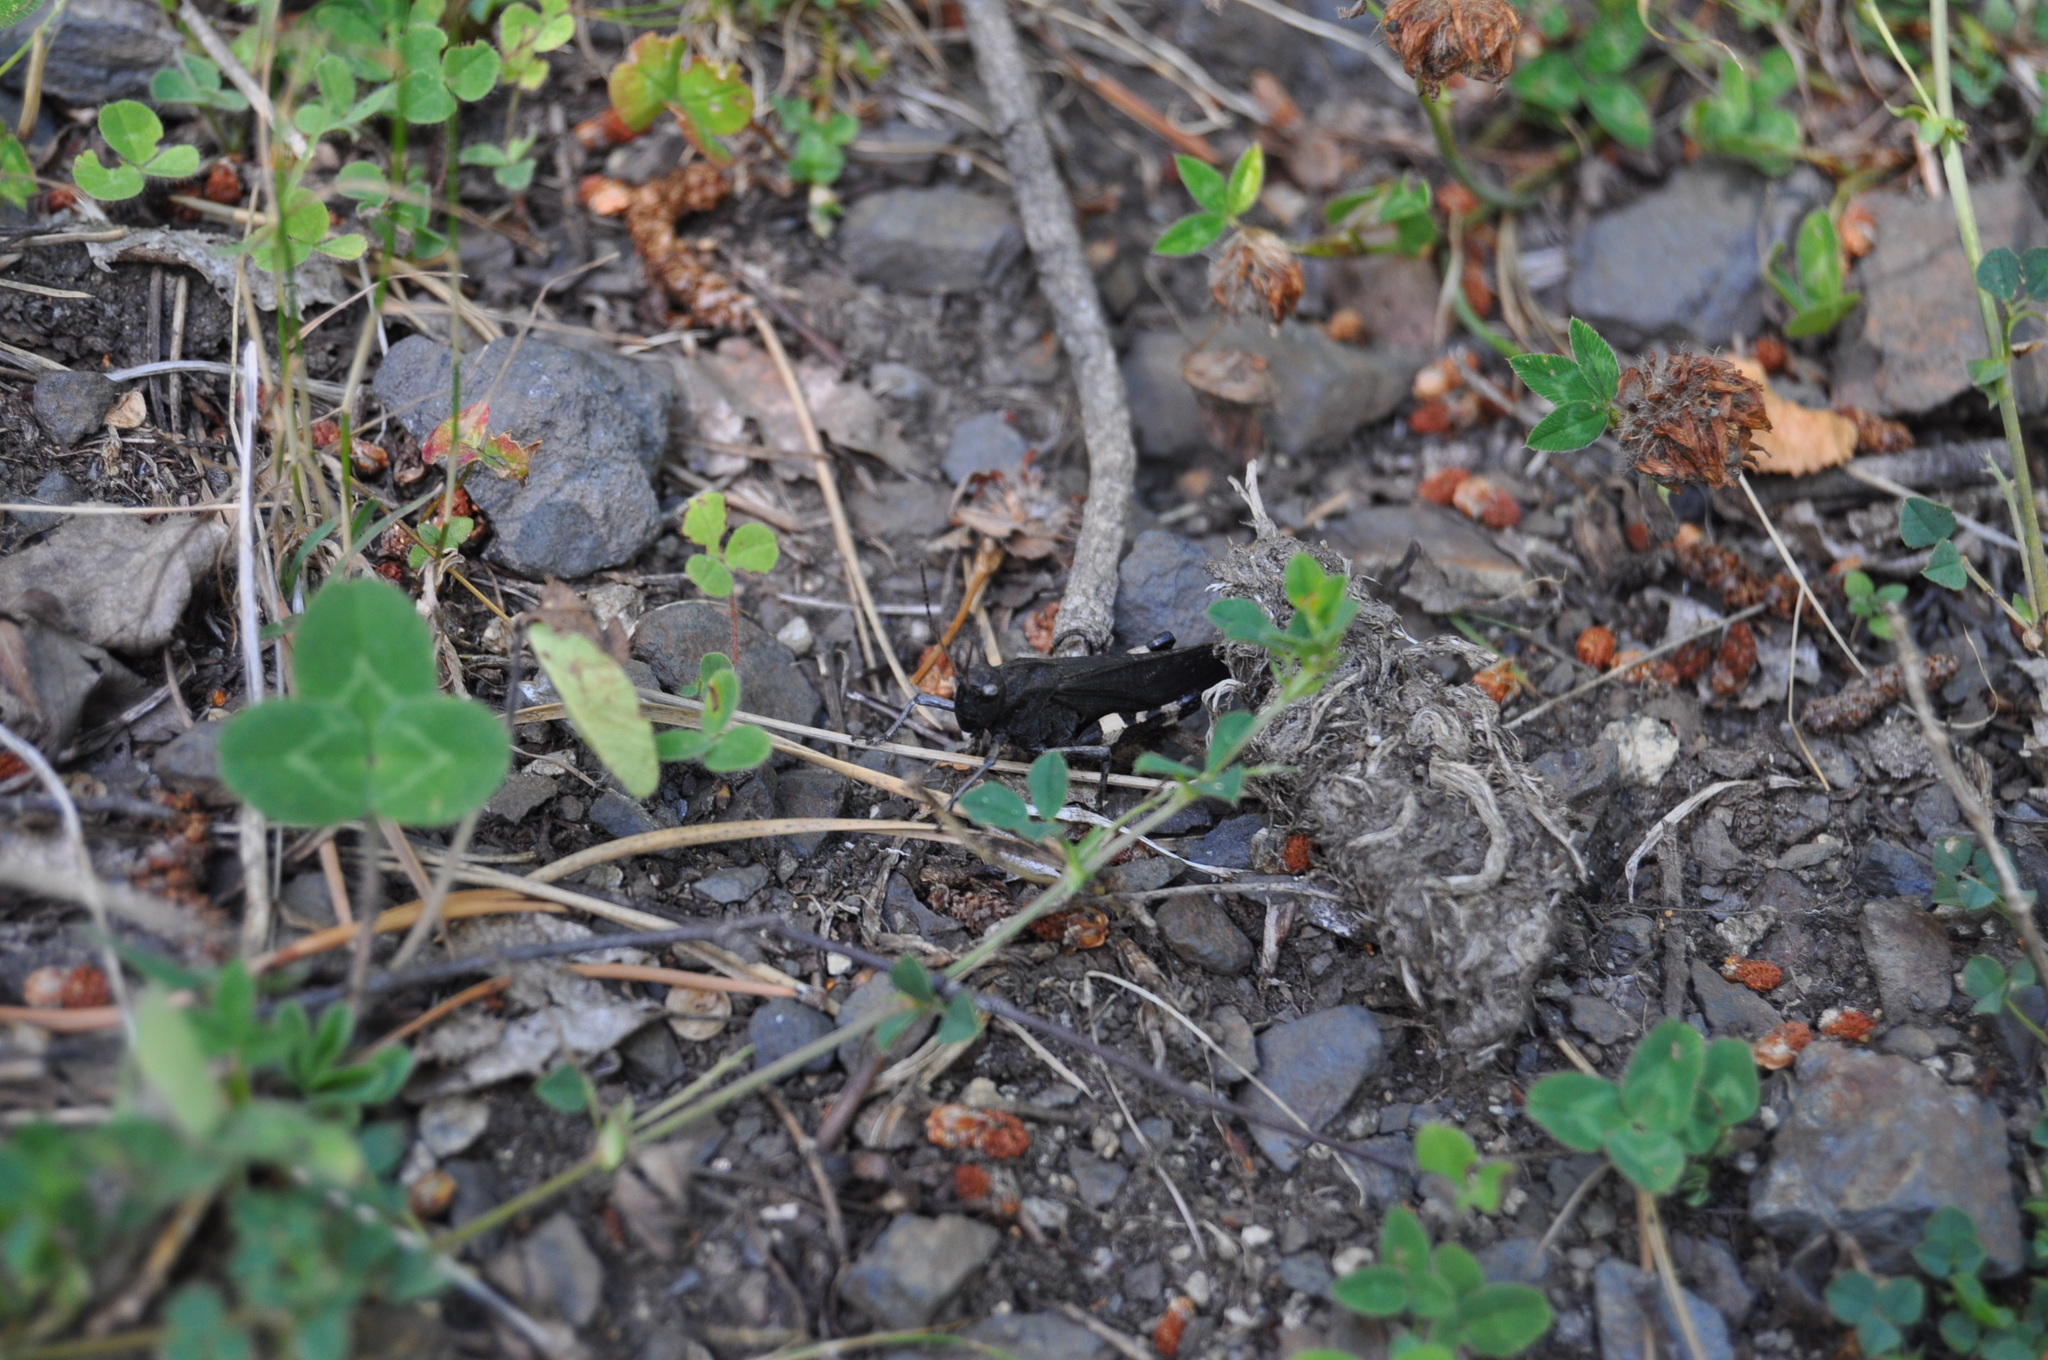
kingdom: Animalia
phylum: Arthropoda
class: Insecta
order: Orthoptera
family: Acrididae
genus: Psophus
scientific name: Psophus stridulus
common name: Rattle grasshopper
